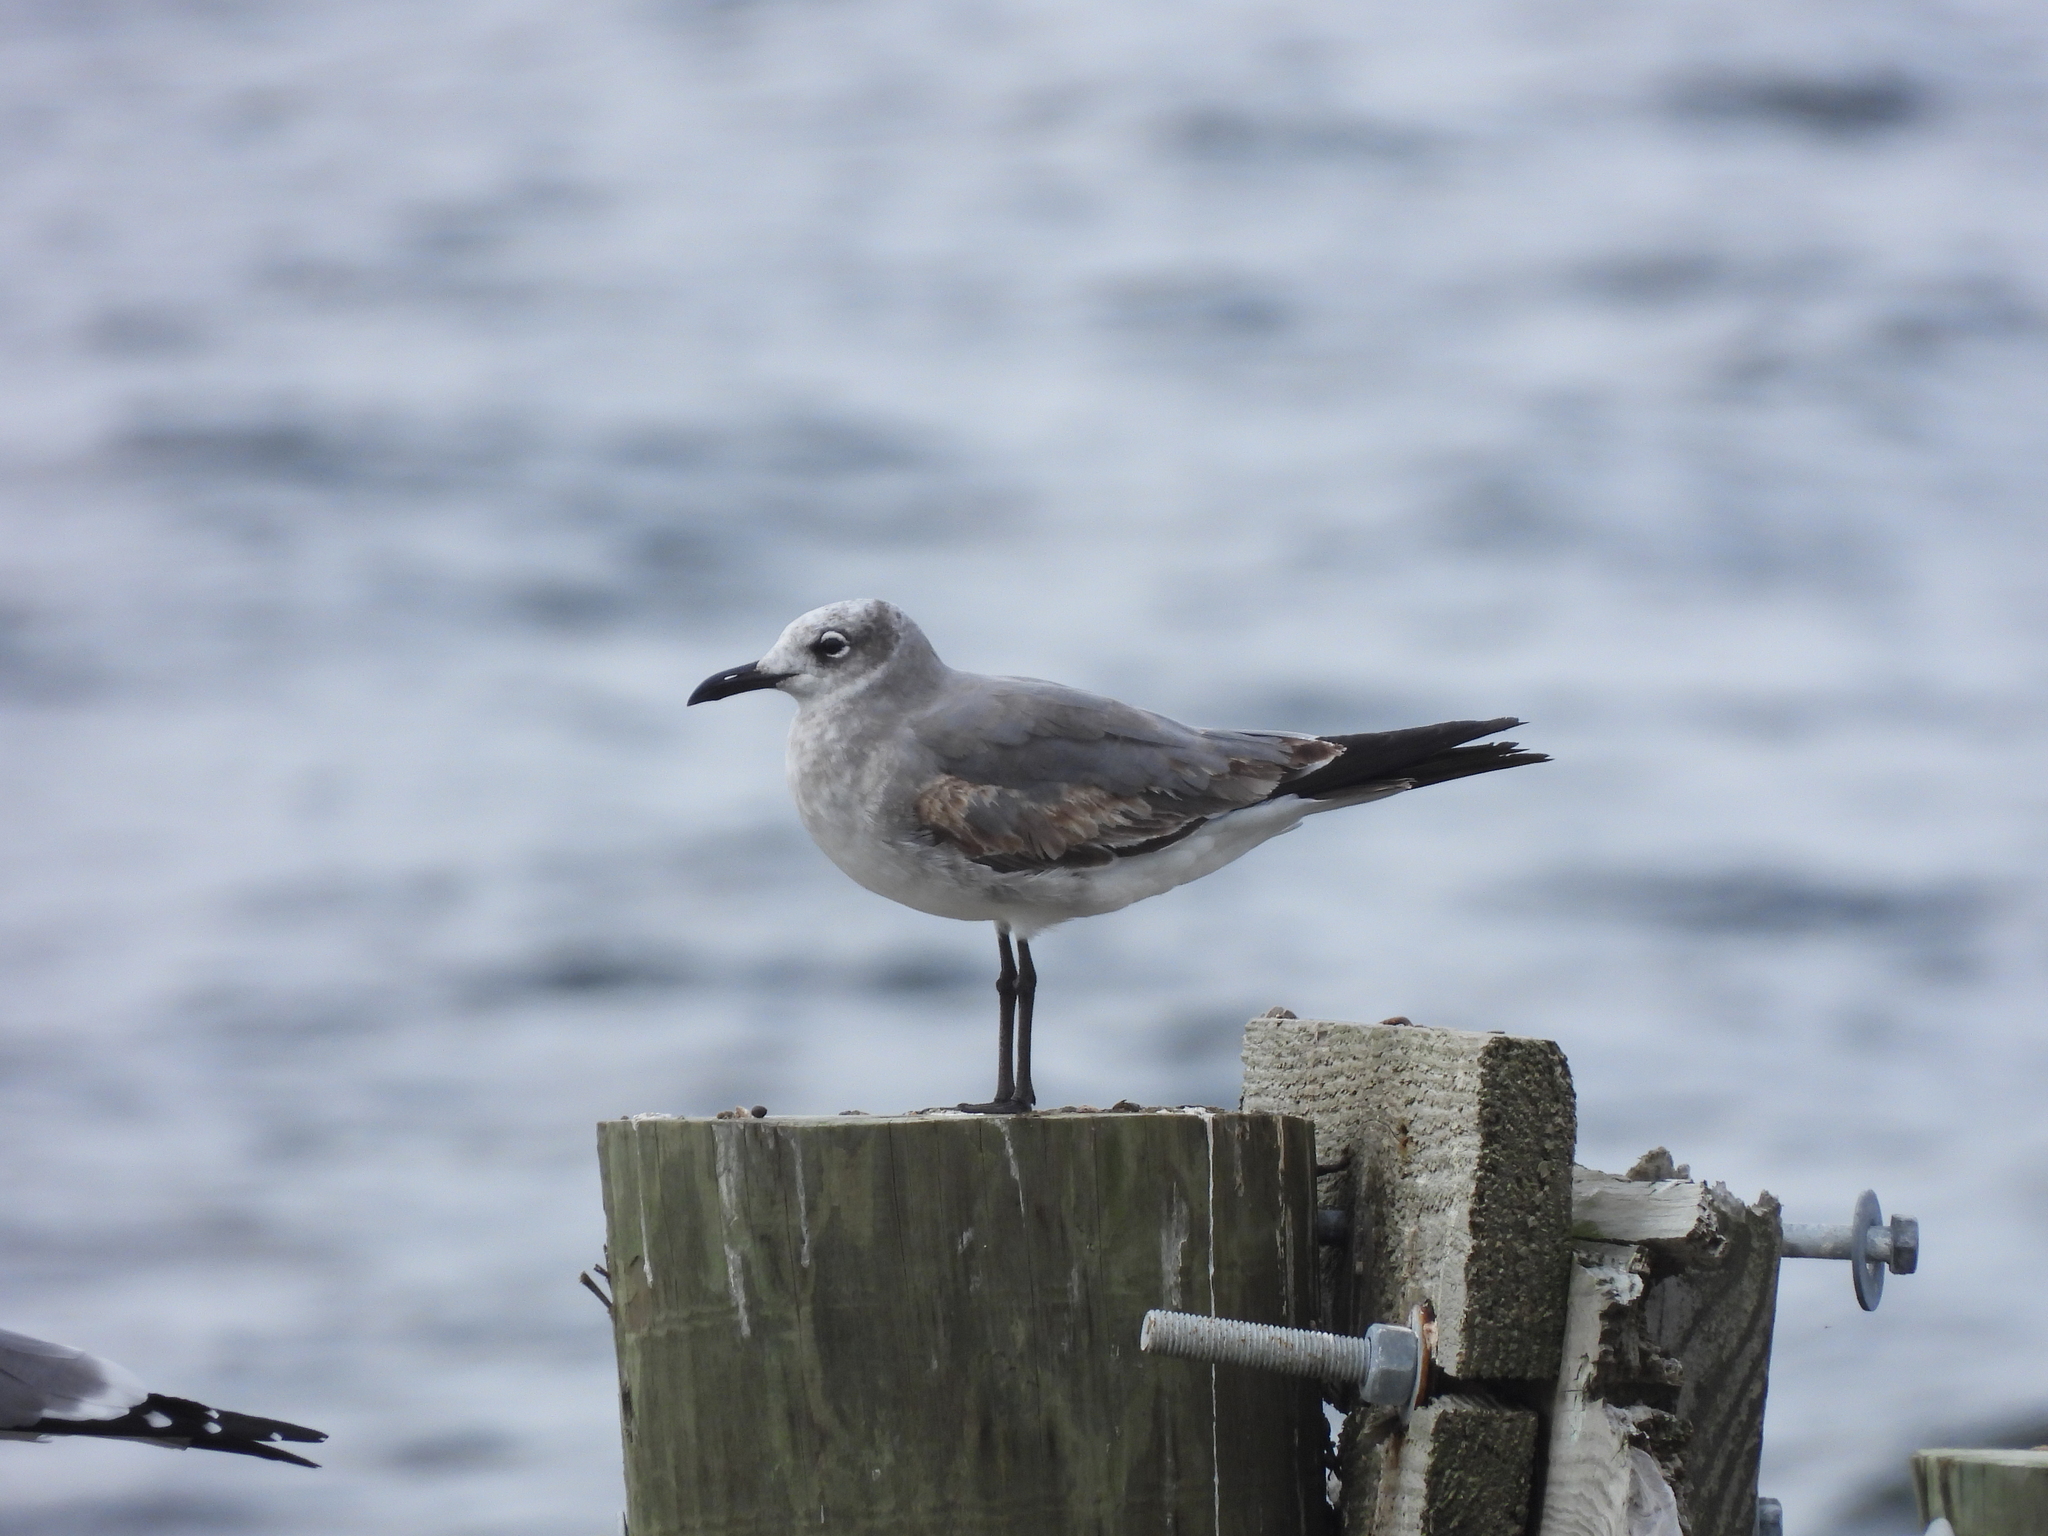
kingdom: Animalia
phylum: Chordata
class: Aves
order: Charadriiformes
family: Laridae
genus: Leucophaeus
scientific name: Leucophaeus atricilla
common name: Laughing gull
